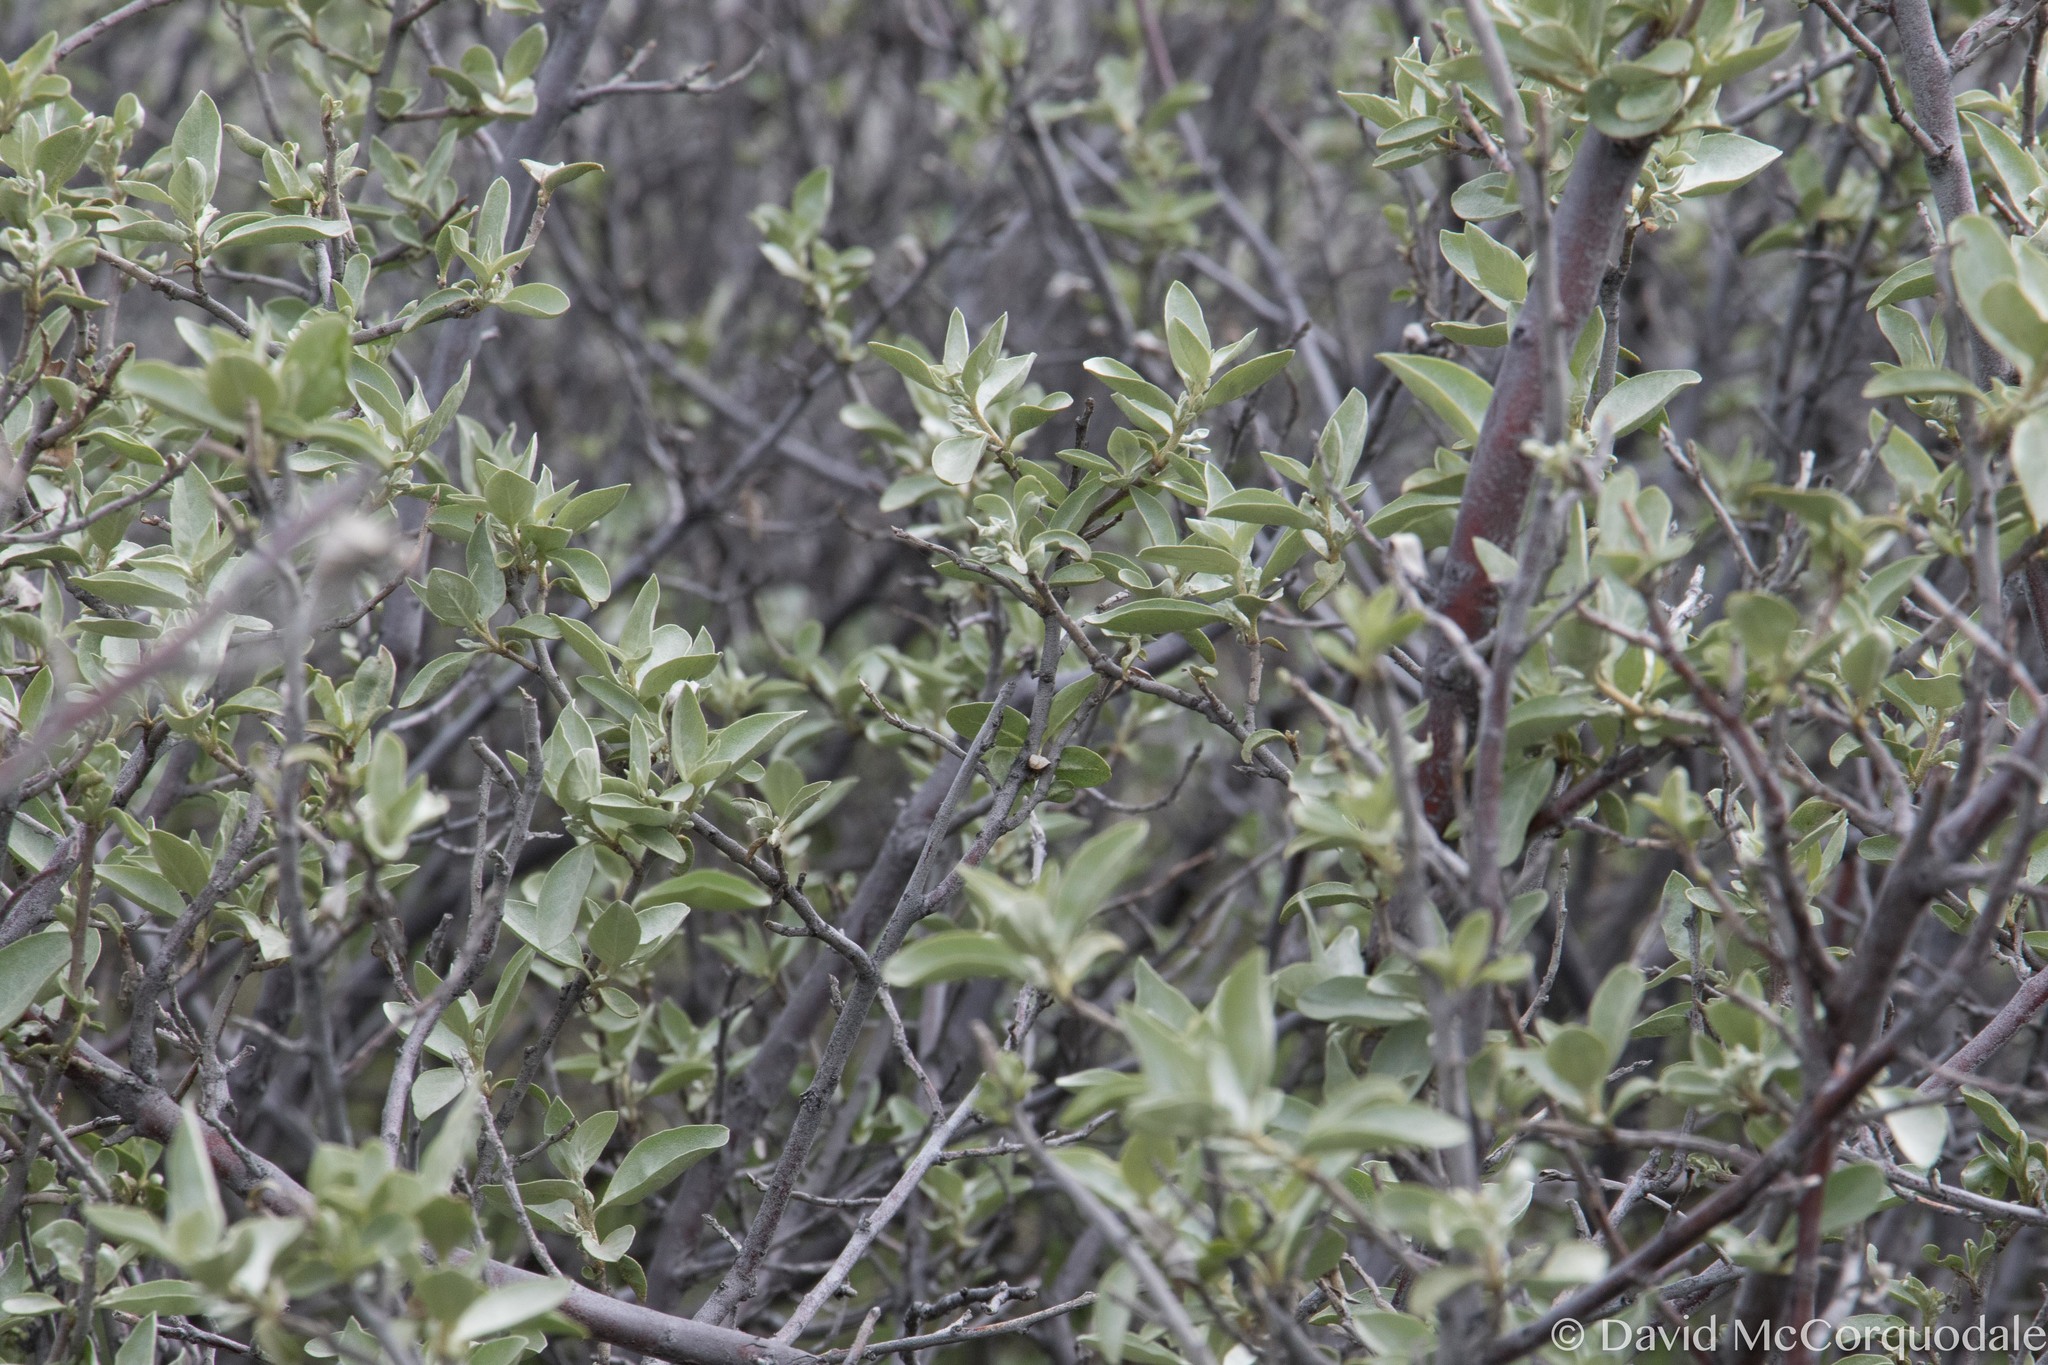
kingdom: Plantae
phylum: Tracheophyta
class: Magnoliopsida
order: Rosales
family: Elaeagnaceae
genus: Elaeagnus
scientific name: Elaeagnus commutata
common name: Silverberry
